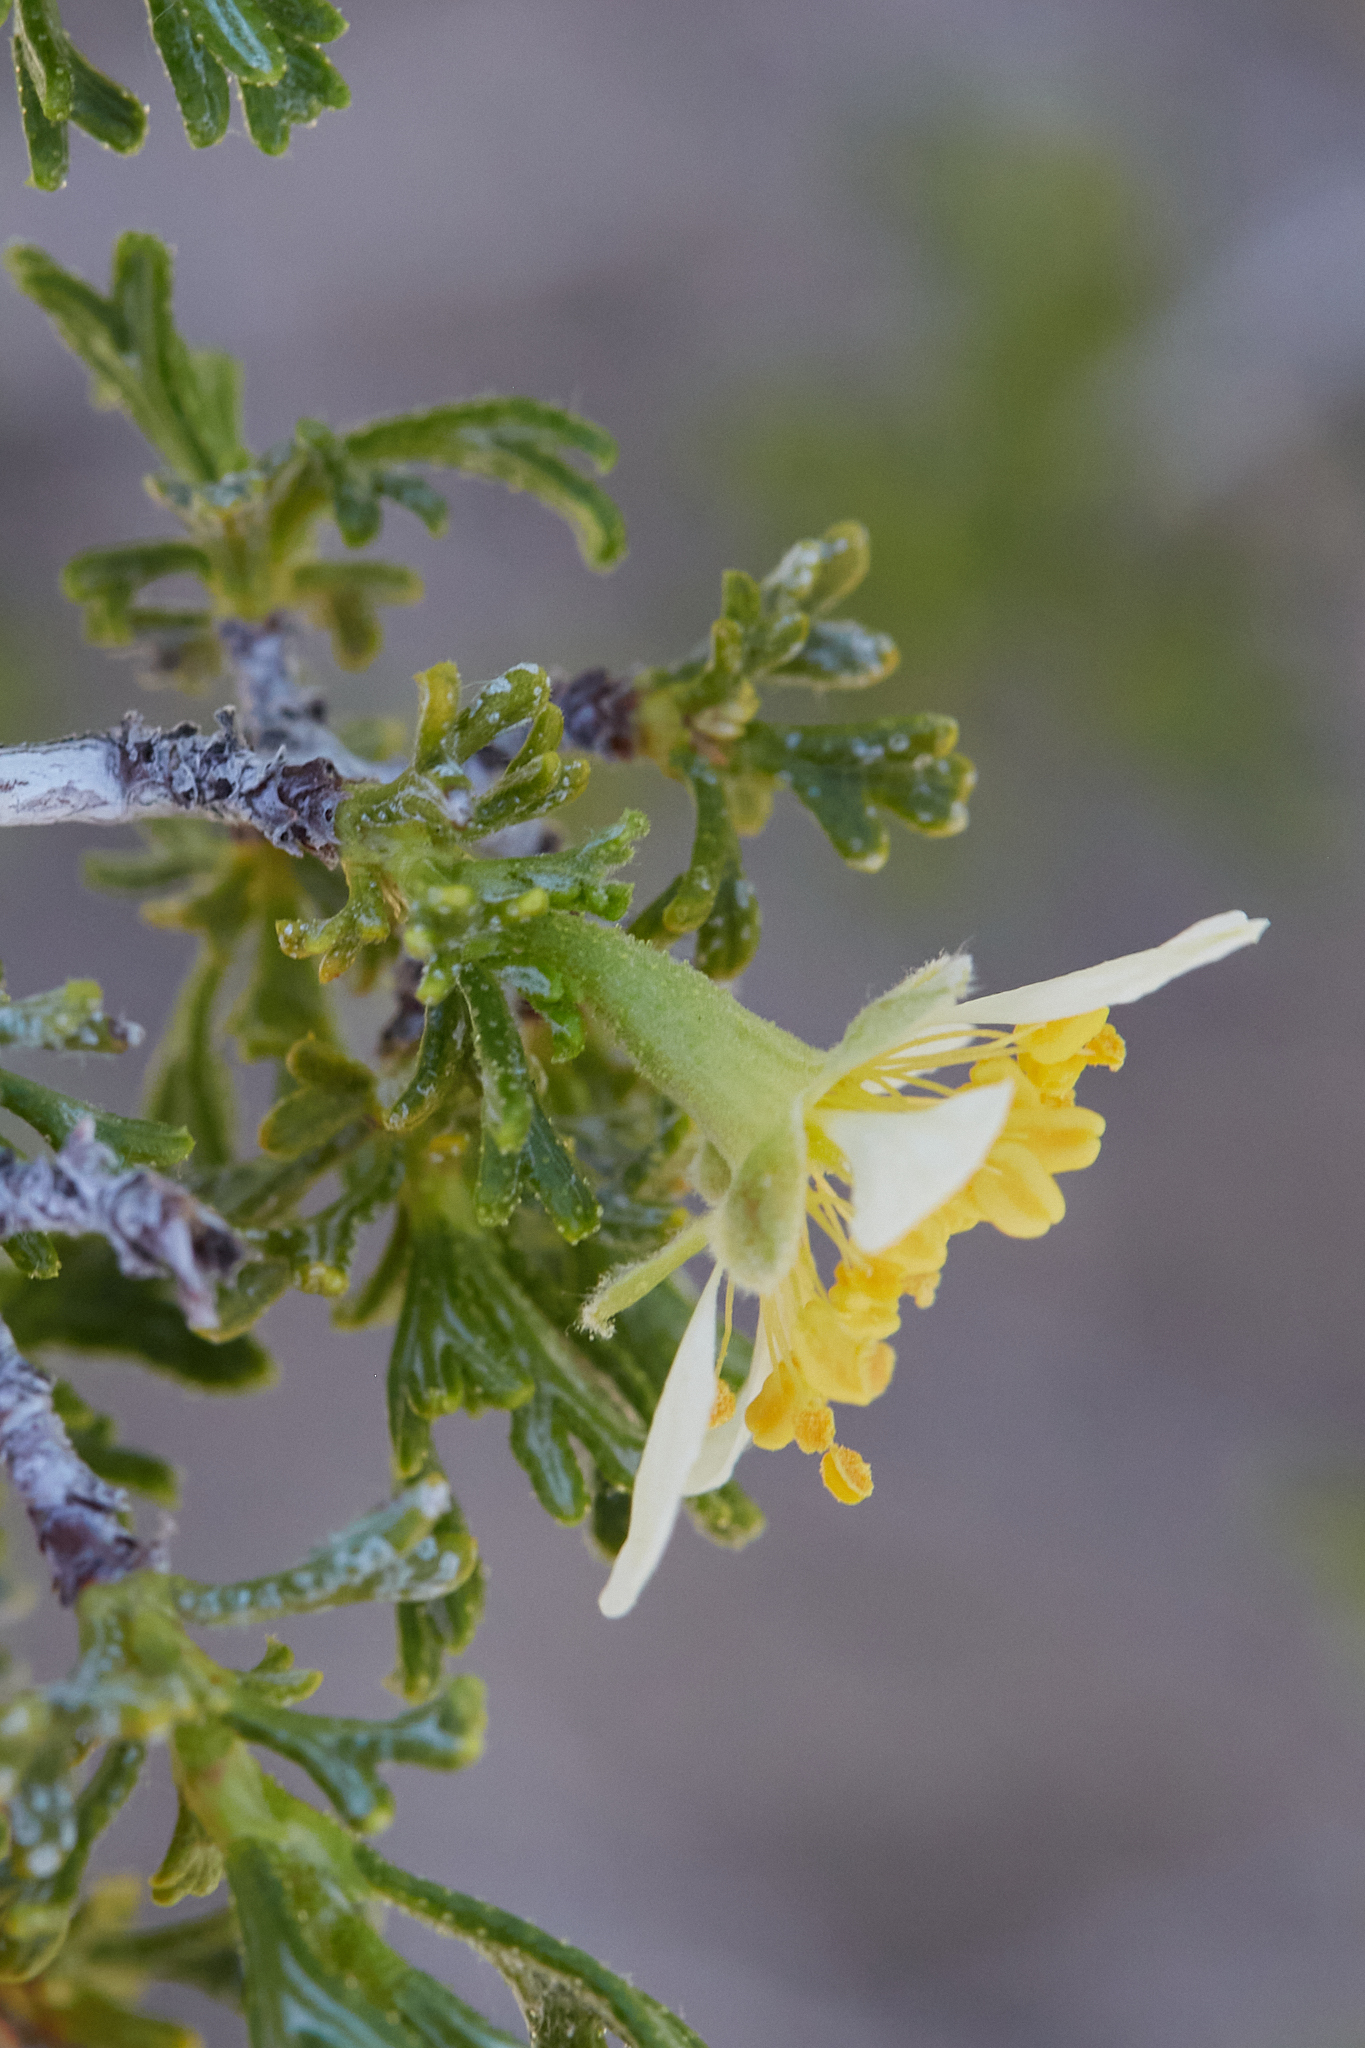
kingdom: Plantae
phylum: Tracheophyta
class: Magnoliopsida
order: Rosales
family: Rosaceae
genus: Purshia
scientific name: Purshia tridentata
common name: Antelope bitterbrush
